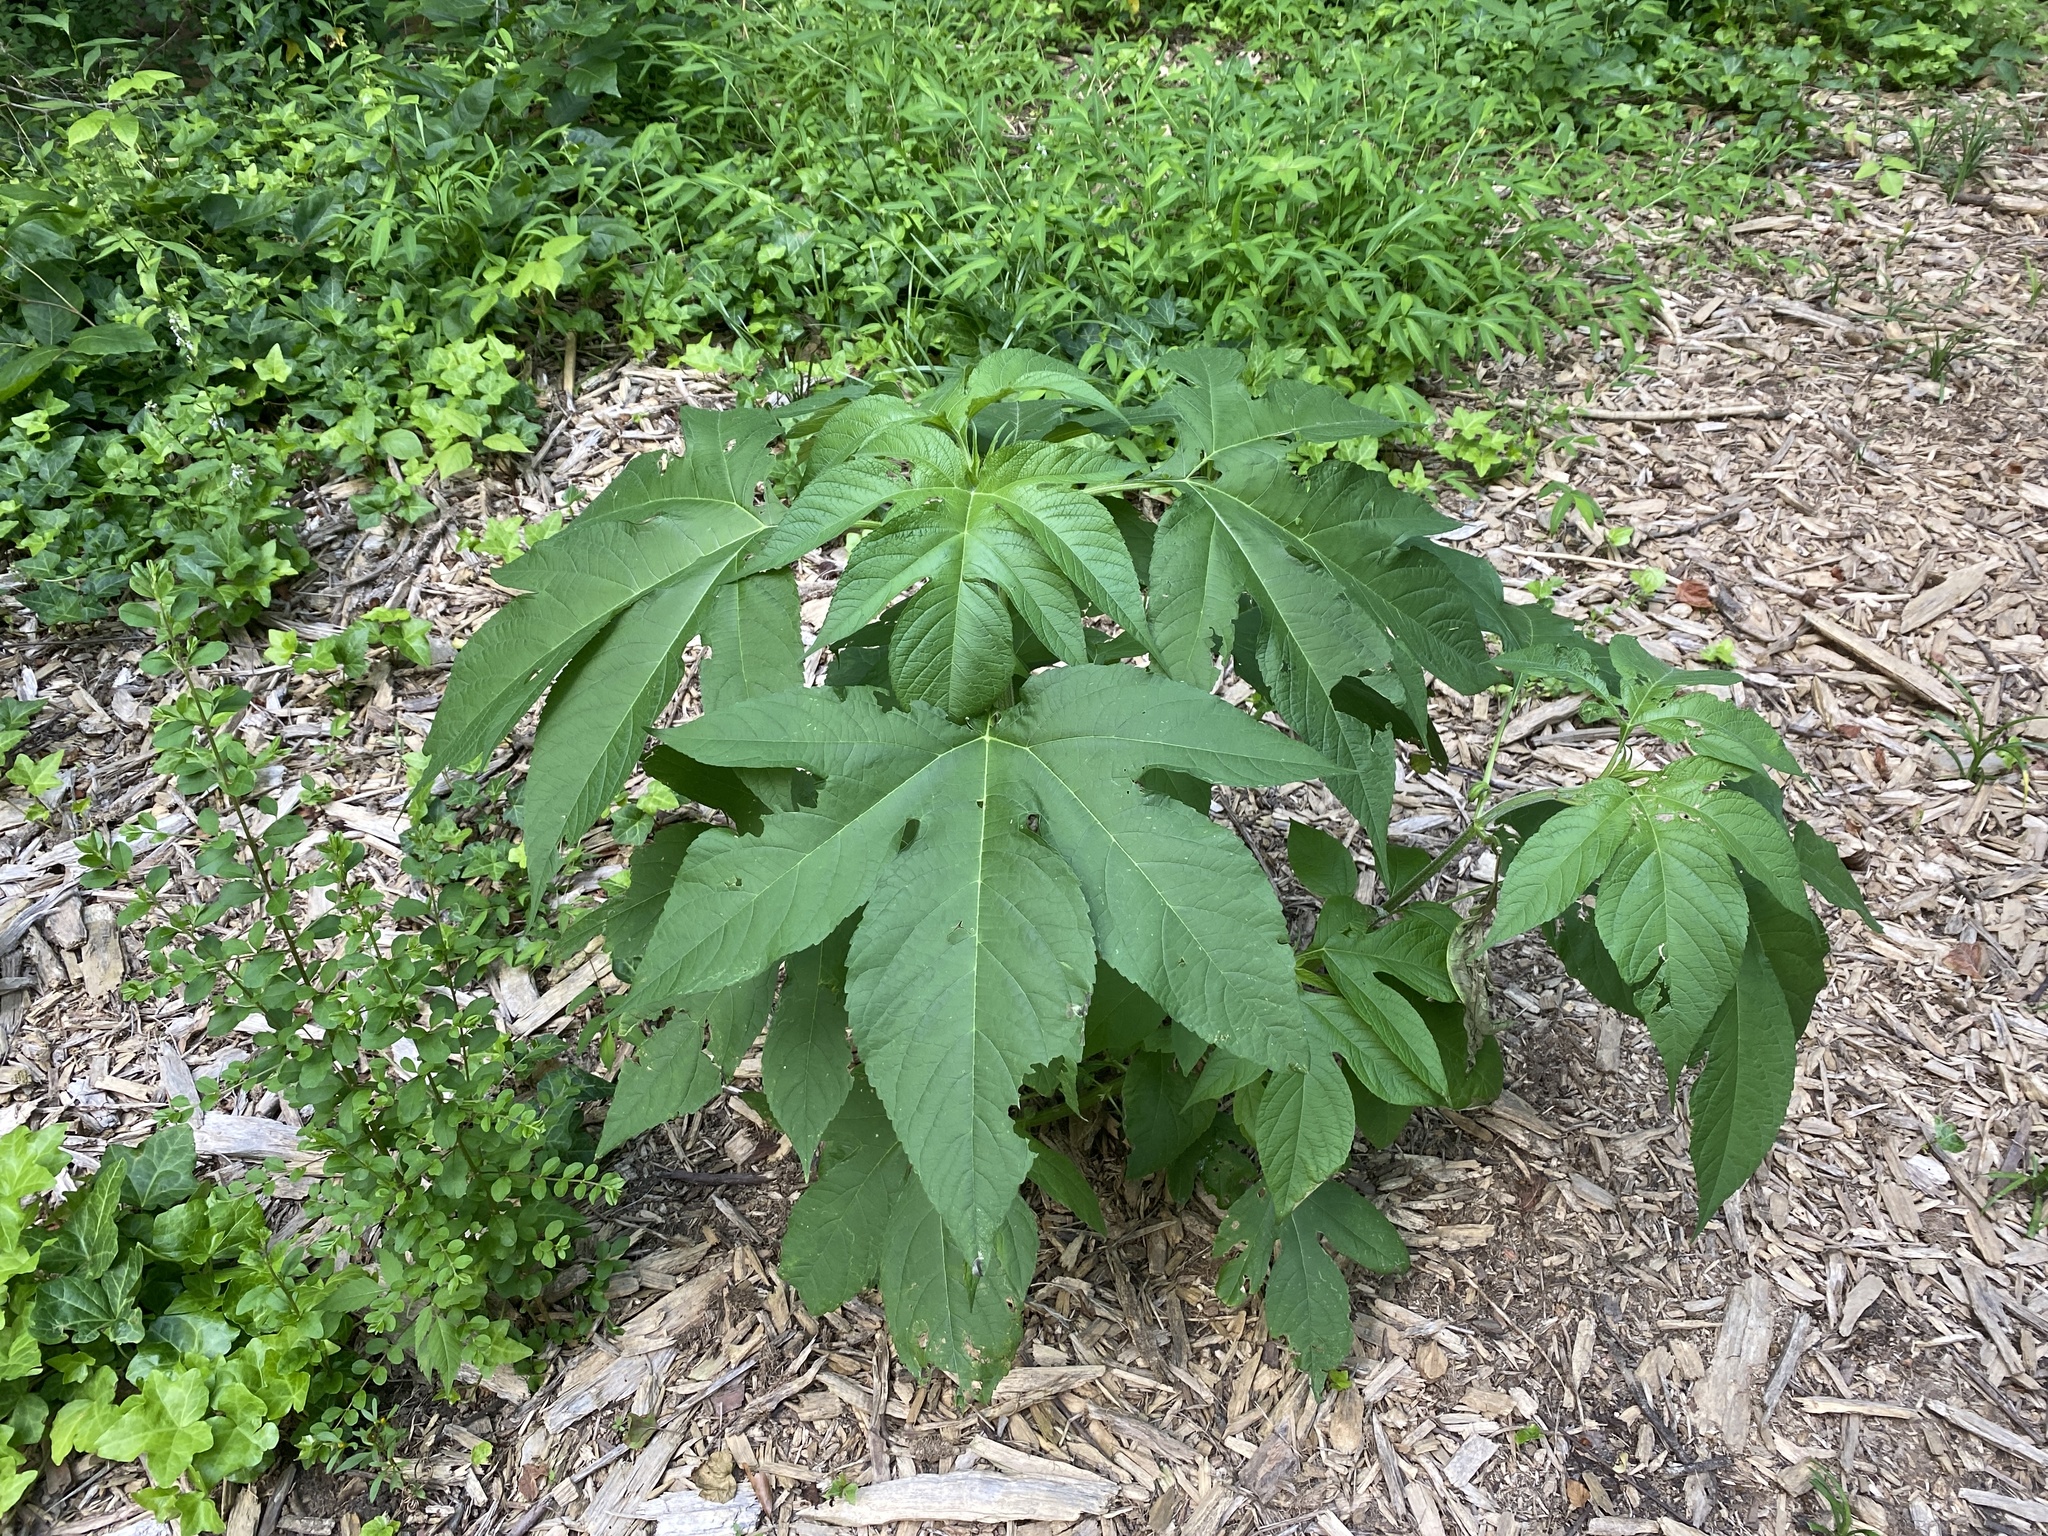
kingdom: Plantae
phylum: Tracheophyta
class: Magnoliopsida
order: Asterales
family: Asteraceae
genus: Ambrosia
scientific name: Ambrosia trifida
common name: Giant ragweed
